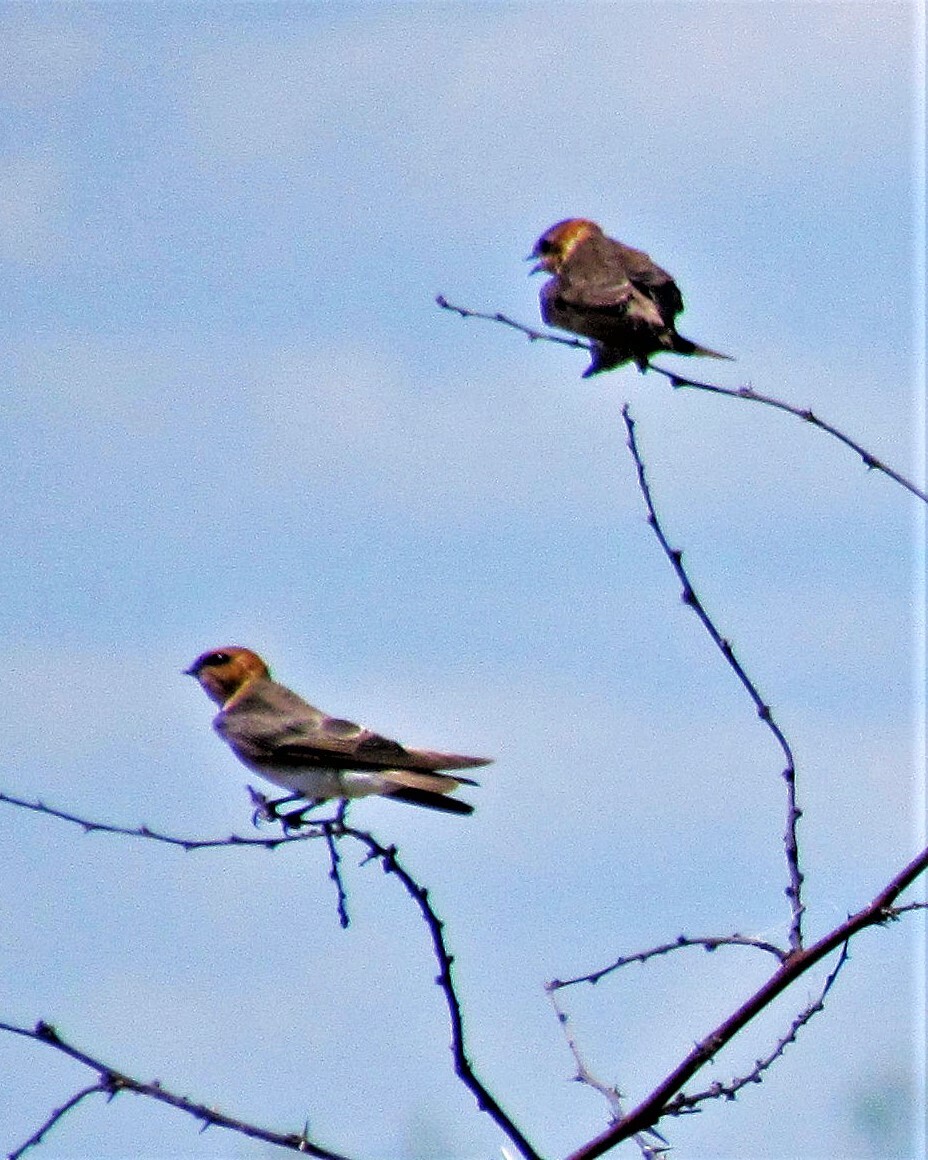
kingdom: Animalia
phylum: Chordata
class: Aves
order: Passeriformes
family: Hirundinidae
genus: Alopochelidon
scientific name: Alopochelidon fucata
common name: Tawny-headed swallow
